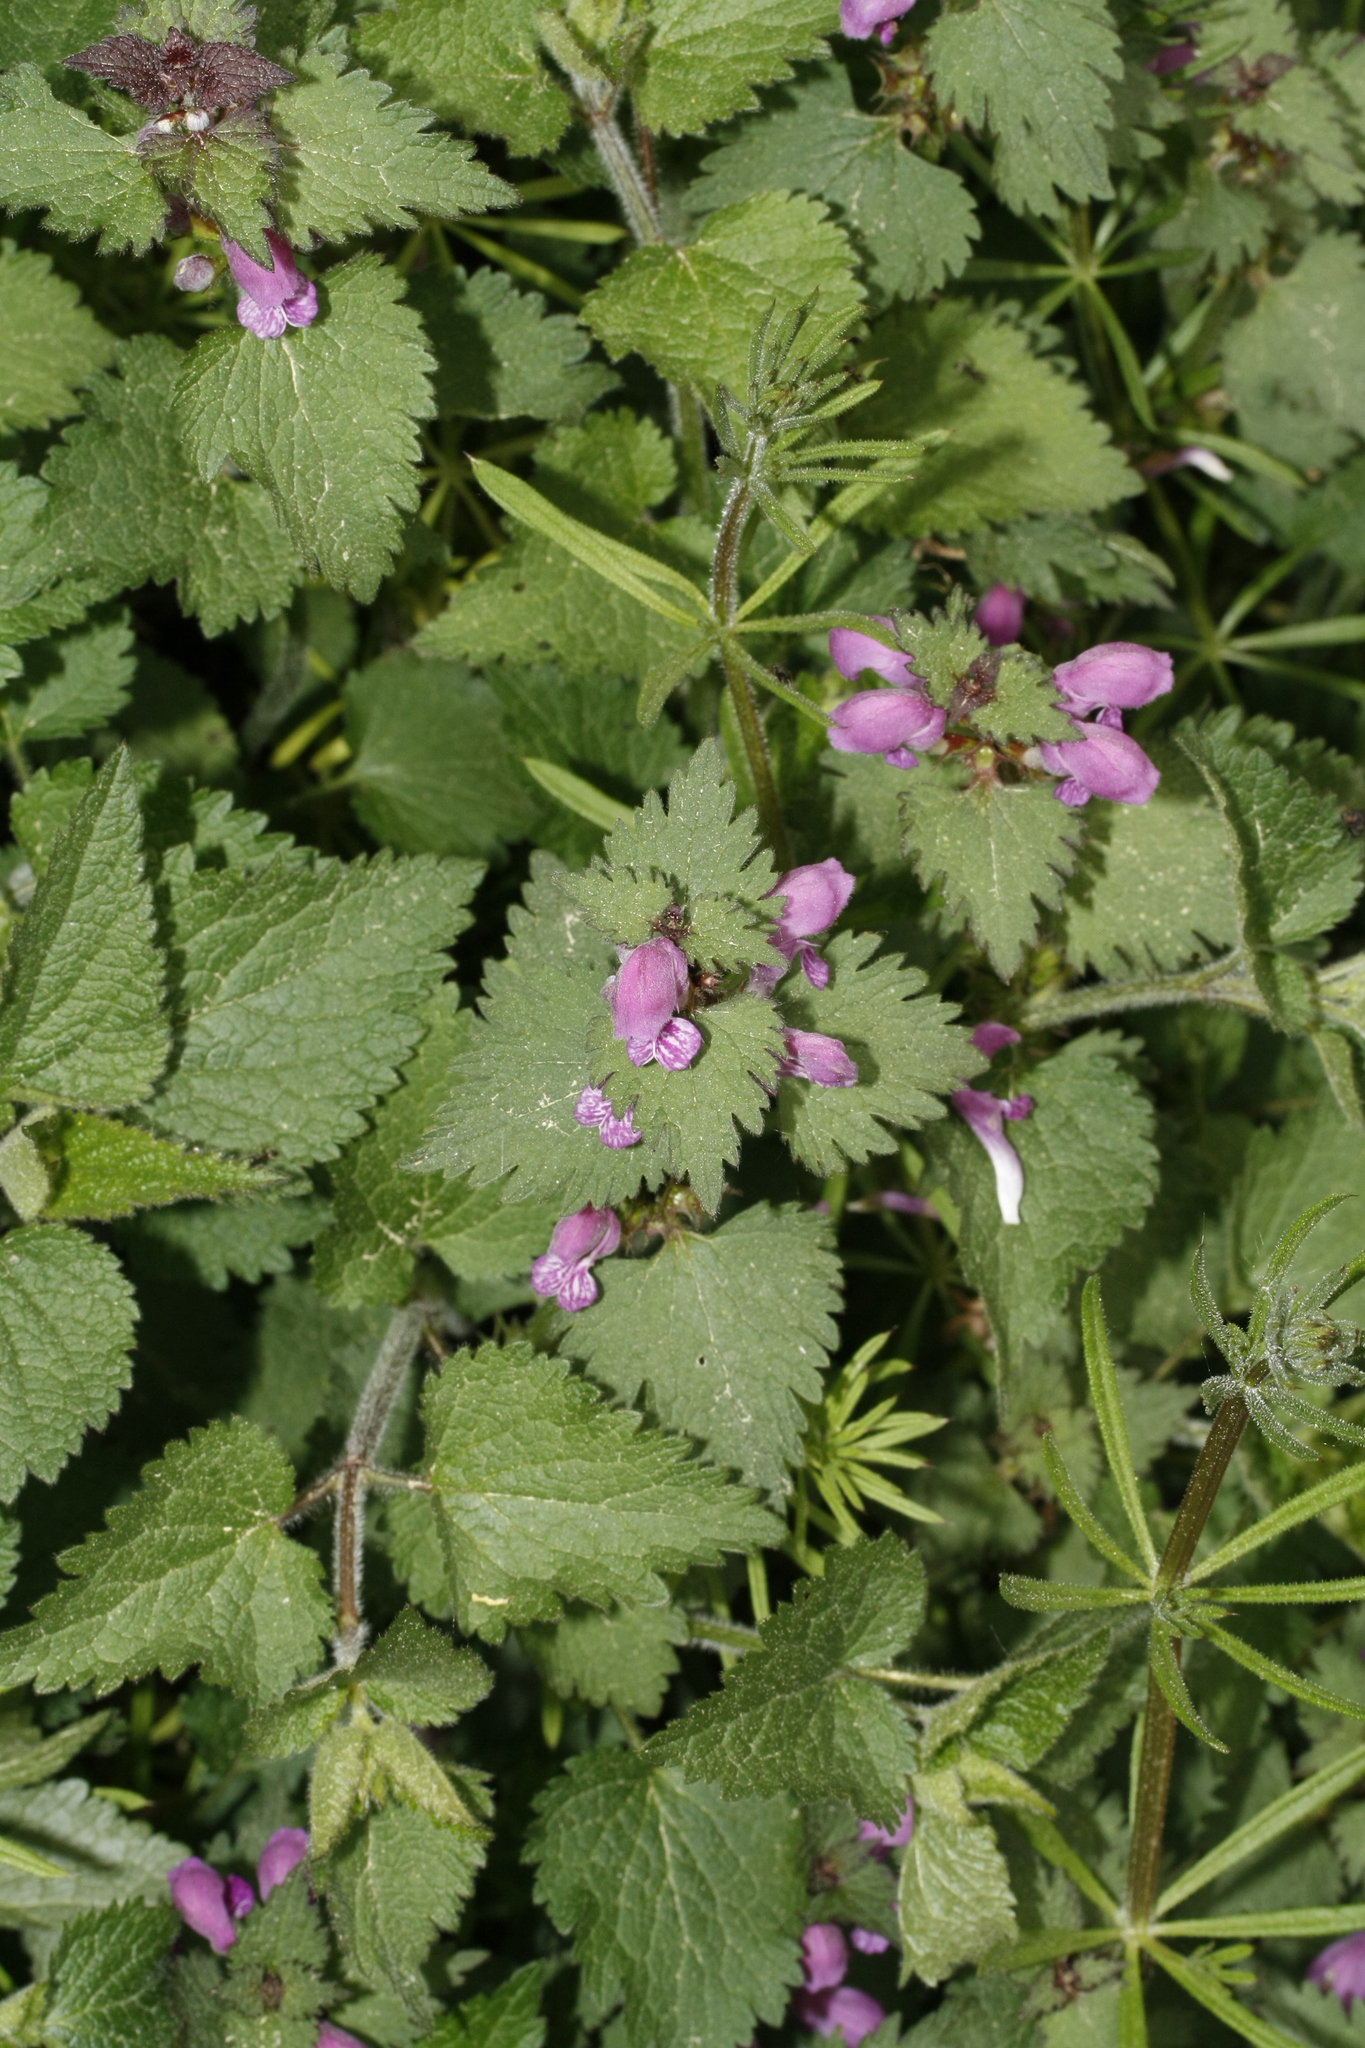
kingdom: Plantae
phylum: Tracheophyta
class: Magnoliopsida
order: Lamiales
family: Lamiaceae
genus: Lamium
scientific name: Lamium maculatum
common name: Spotted dead-nettle
